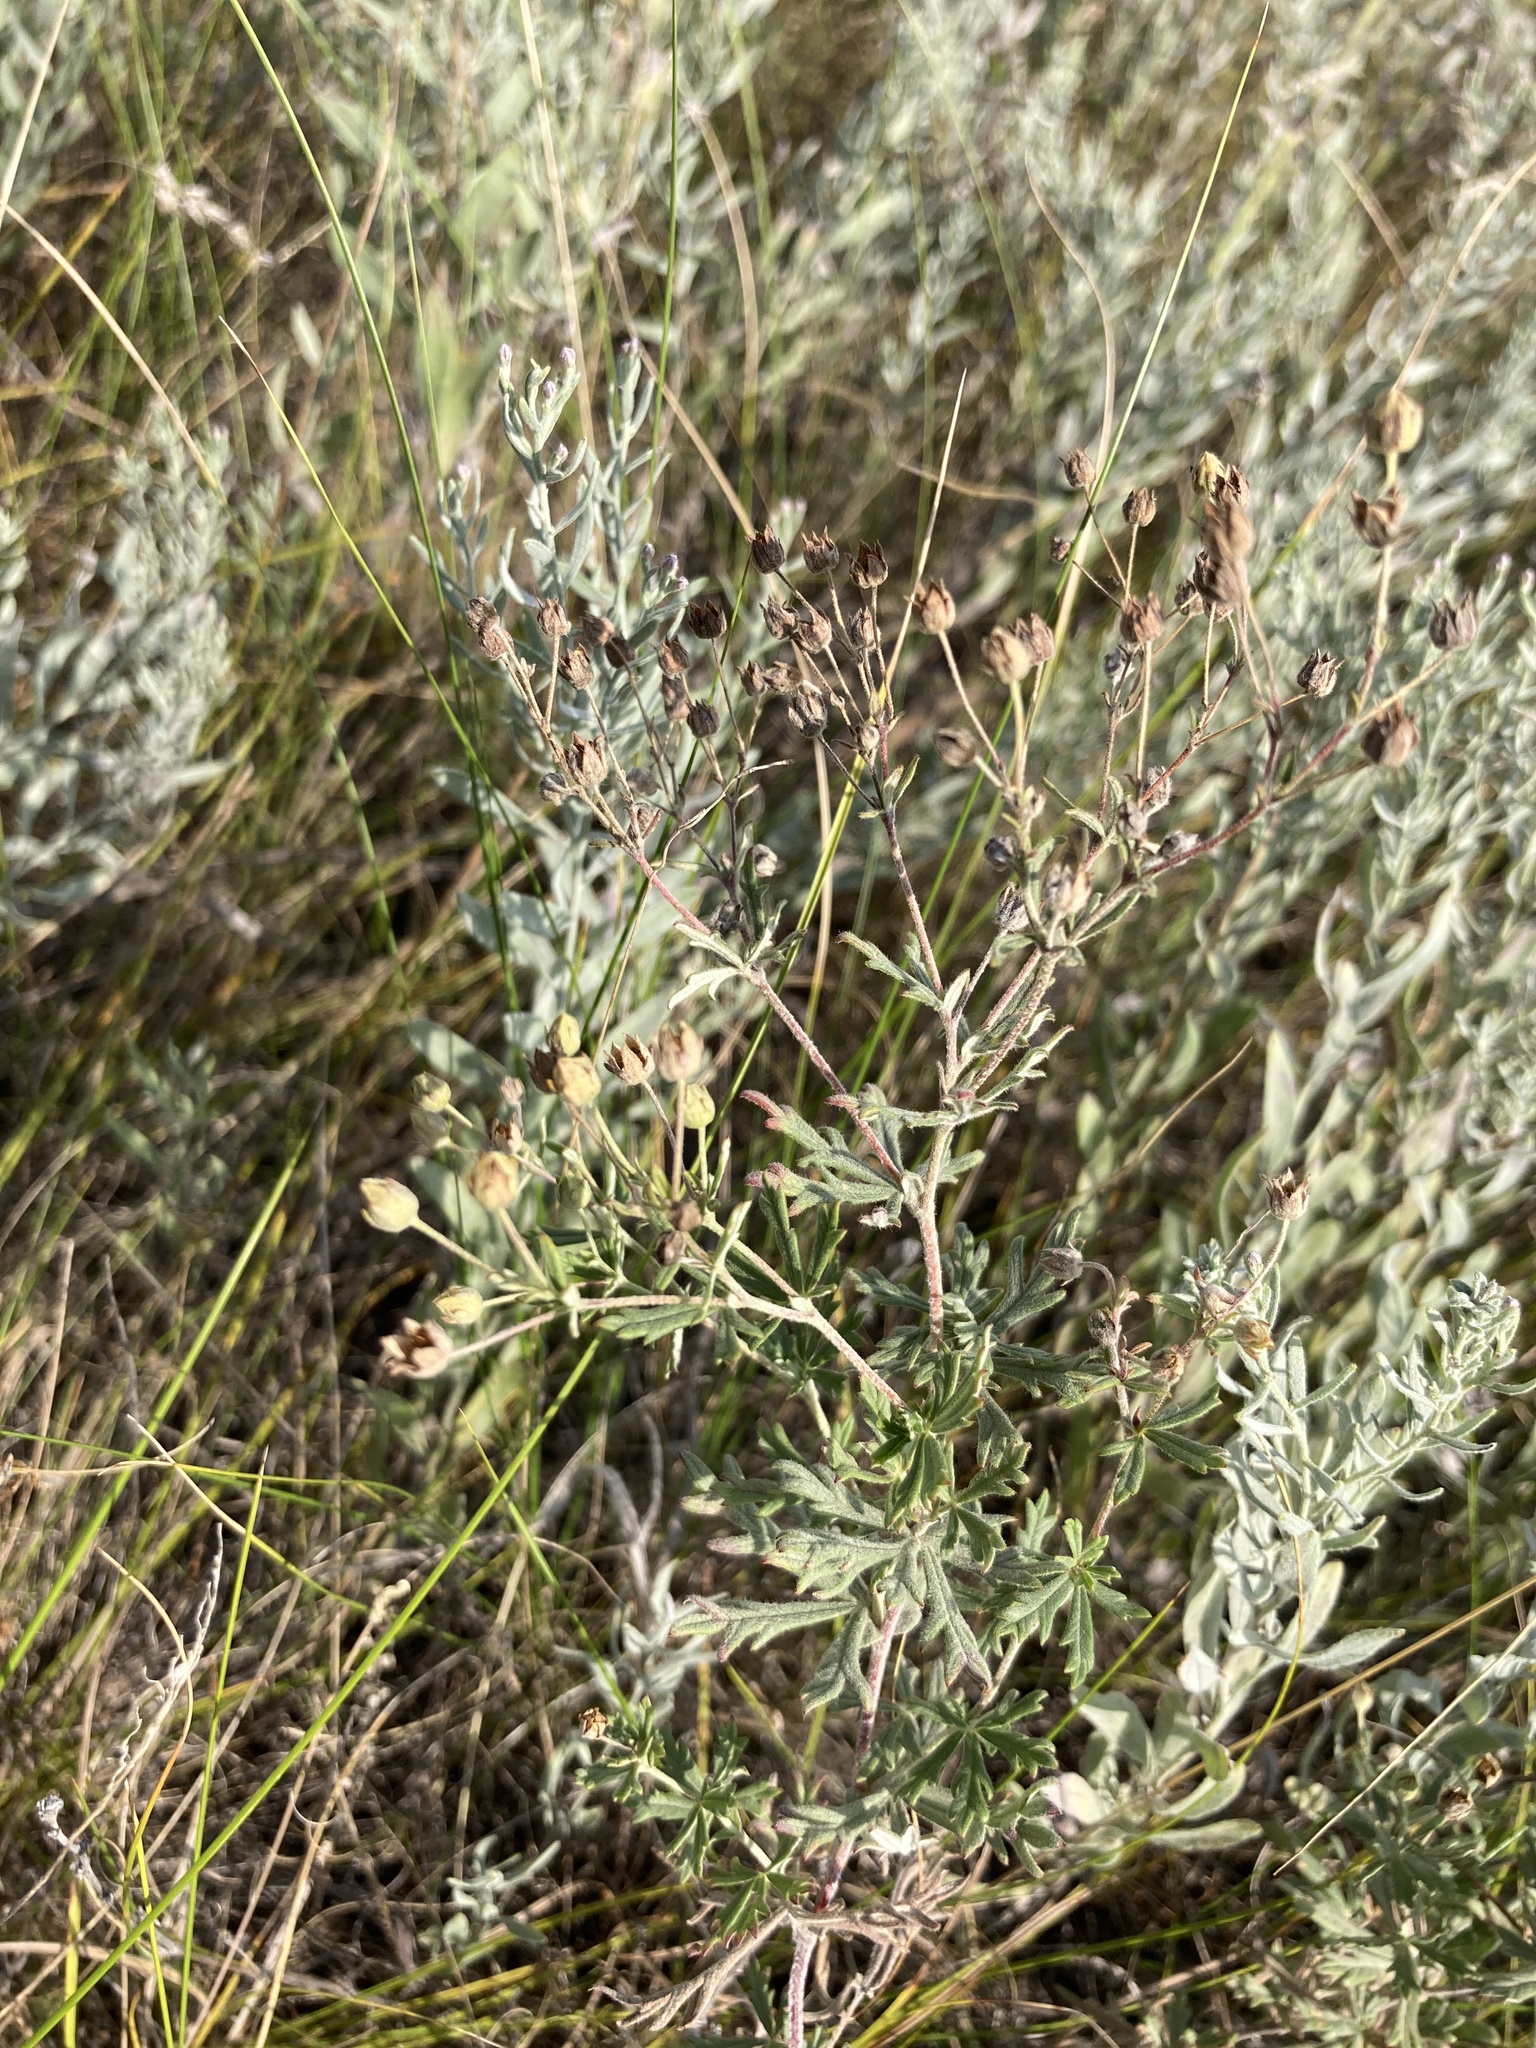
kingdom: Plantae
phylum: Tracheophyta
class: Magnoliopsida
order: Rosales
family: Rosaceae
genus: Potentilla
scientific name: Potentilla argentea
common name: Hoary cinquefoil
